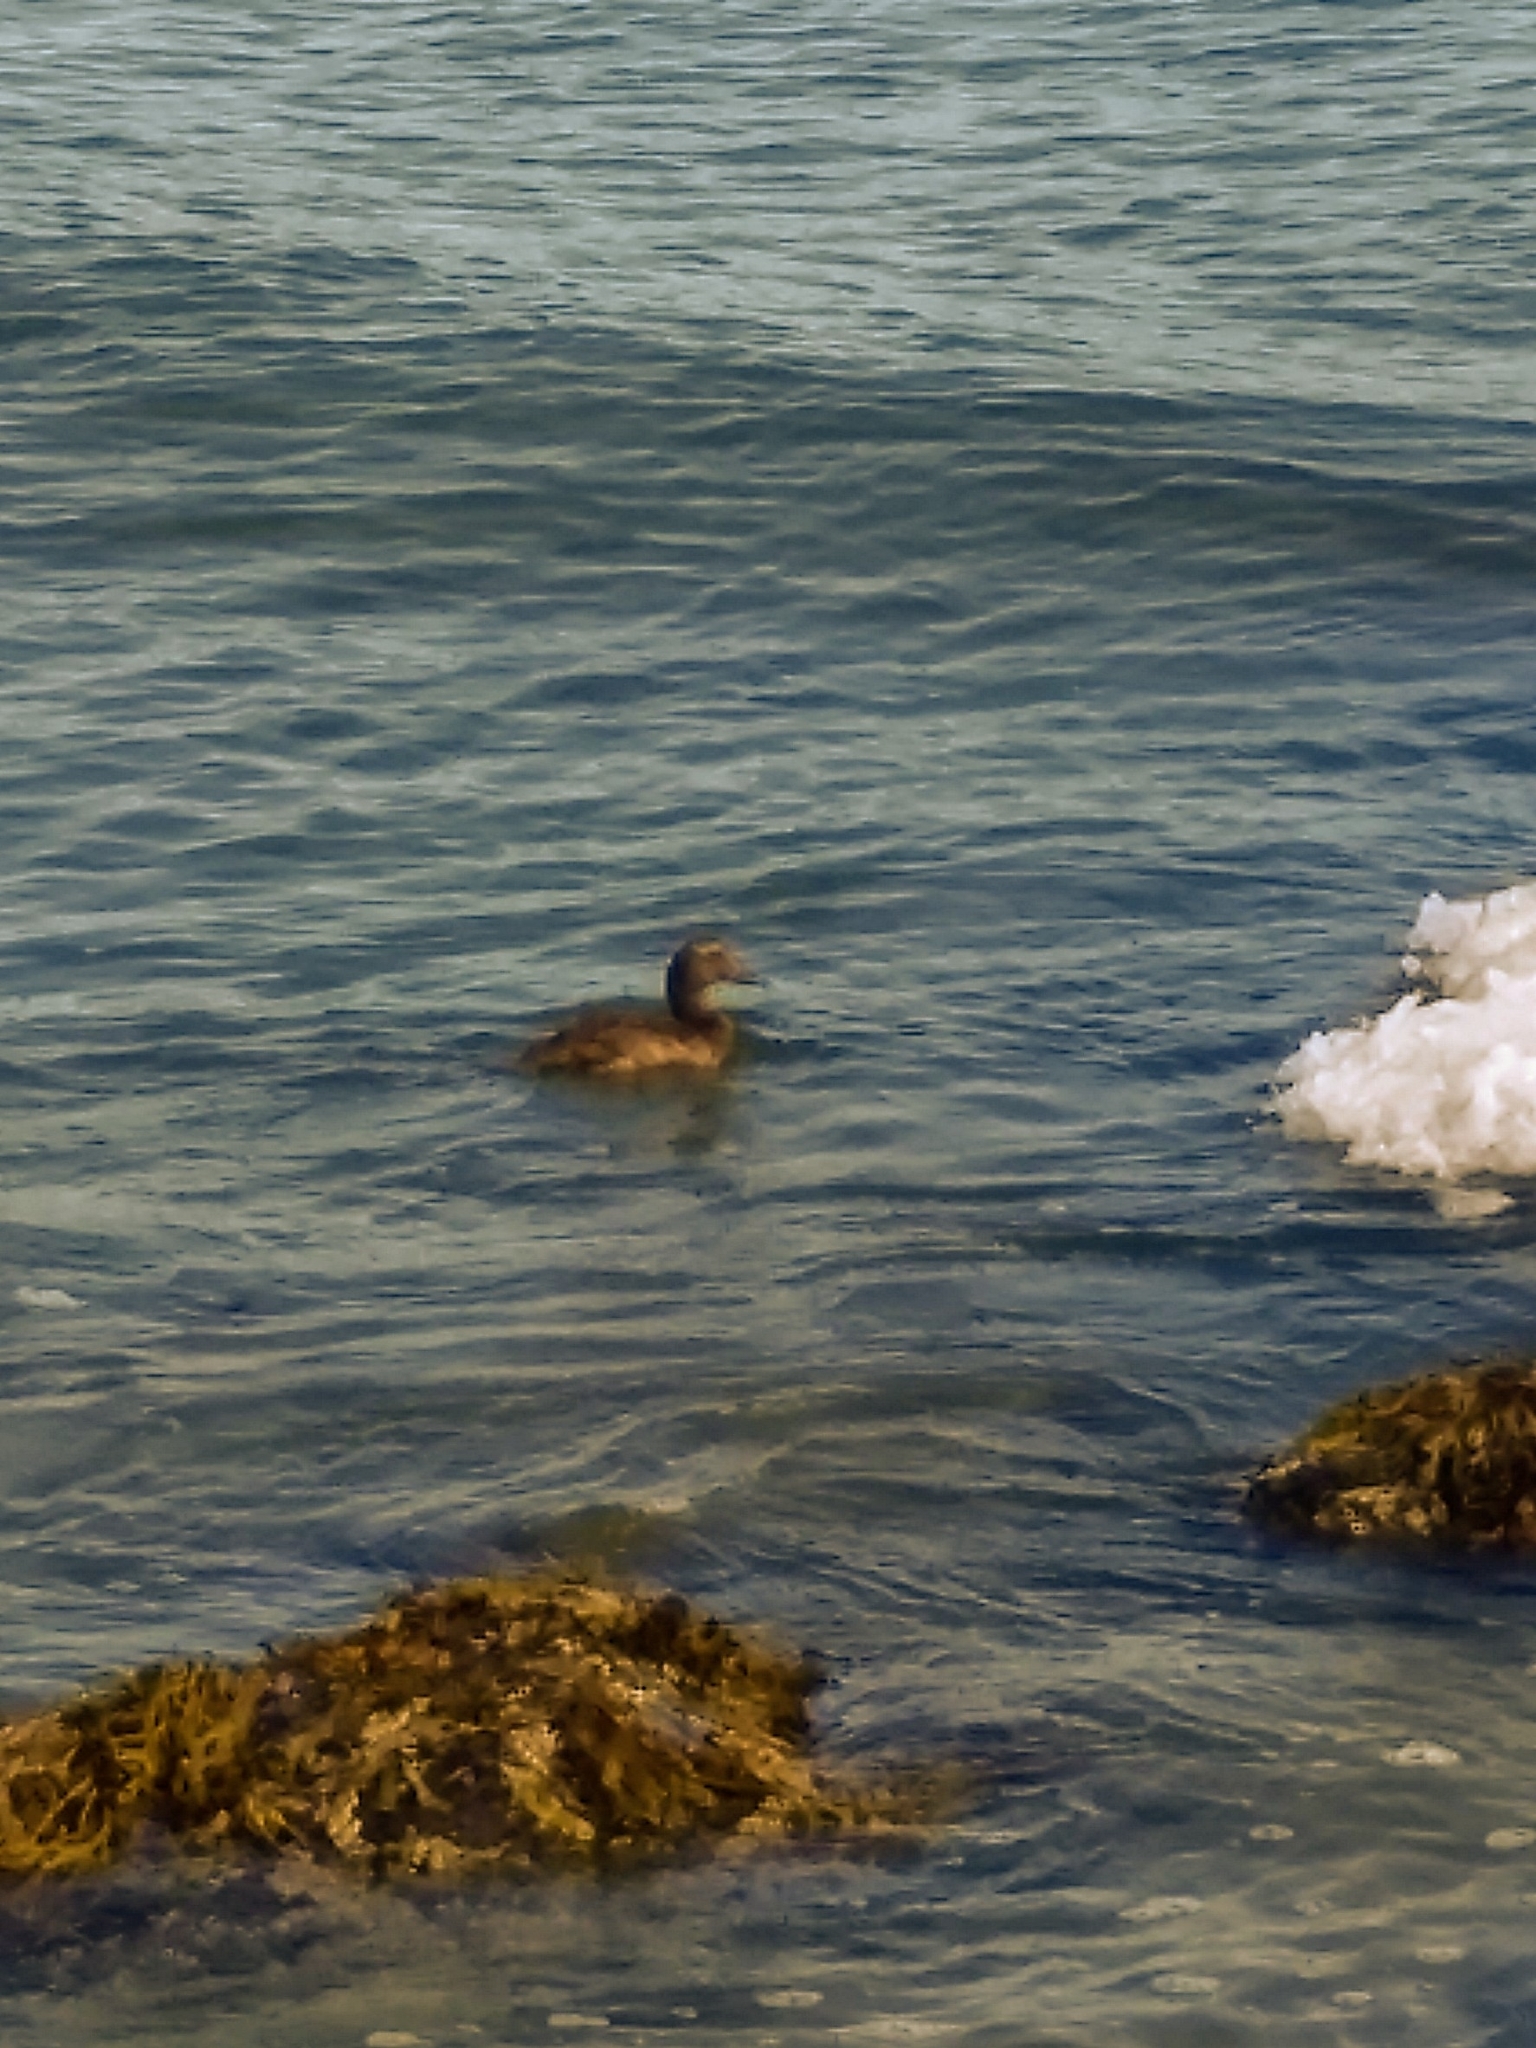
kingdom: Animalia
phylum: Chordata
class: Aves
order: Anseriformes
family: Anatidae
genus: Somateria
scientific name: Somateria mollissima
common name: Common eider
